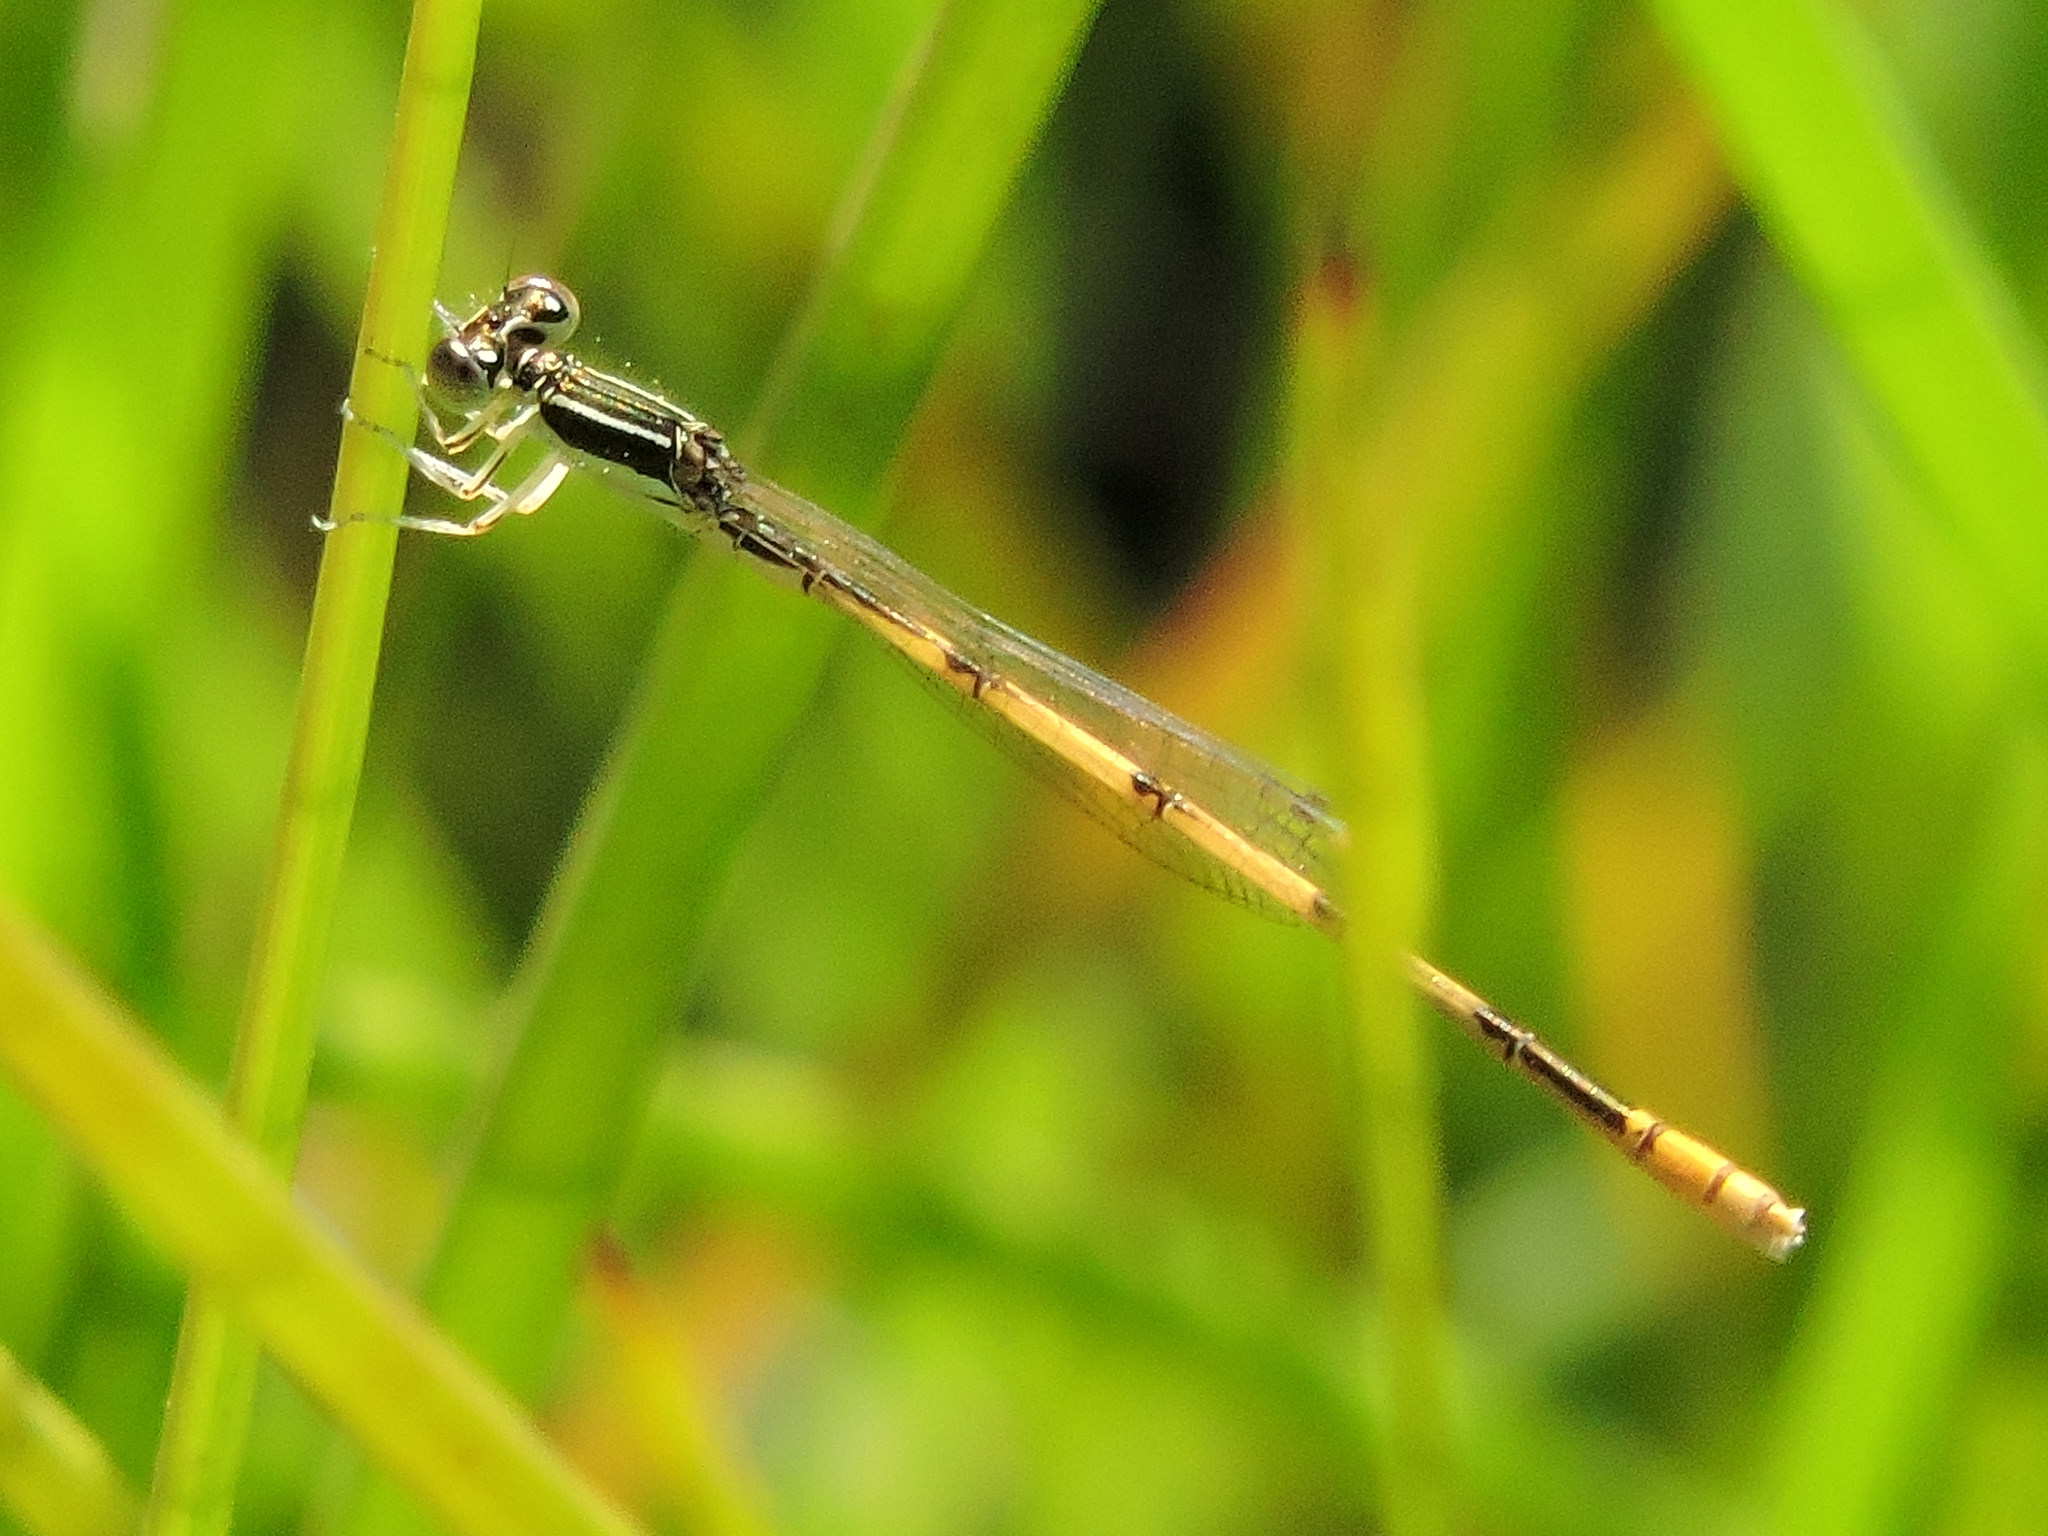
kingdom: Animalia
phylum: Arthropoda
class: Insecta
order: Odonata
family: Coenagrionidae
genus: Ischnura
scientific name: Ischnura hastata
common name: Citrine forktail
